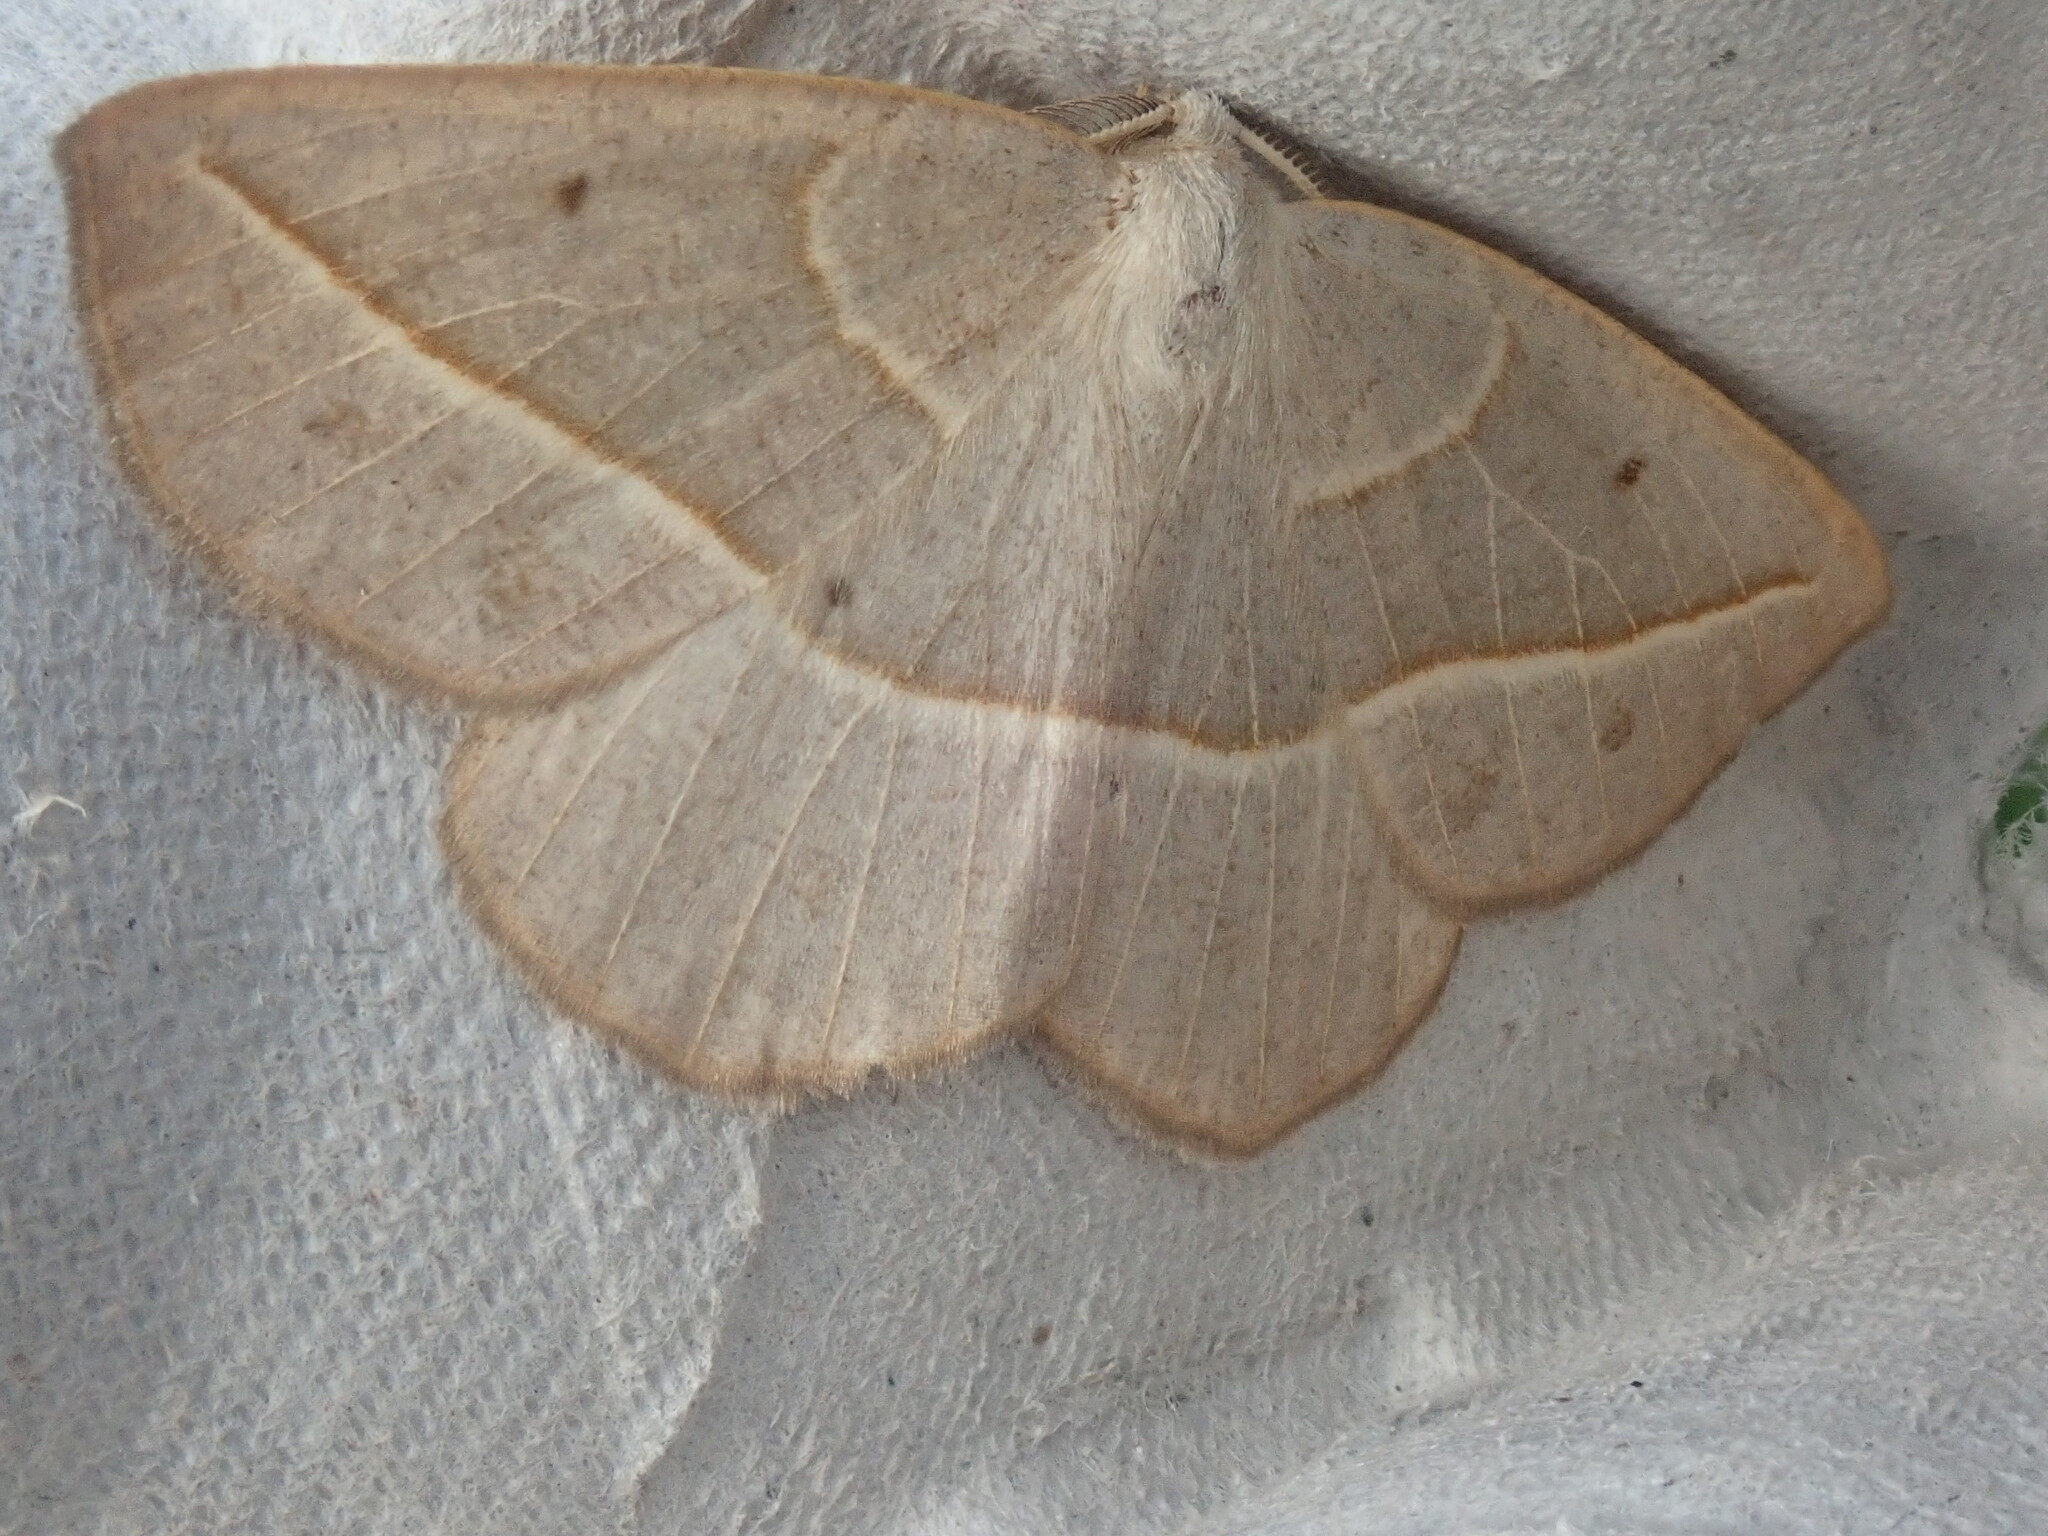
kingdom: Animalia
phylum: Arthropoda
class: Insecta
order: Lepidoptera
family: Geometridae
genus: Eusarca
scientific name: Eusarca confusaria
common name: Confused eusarca
